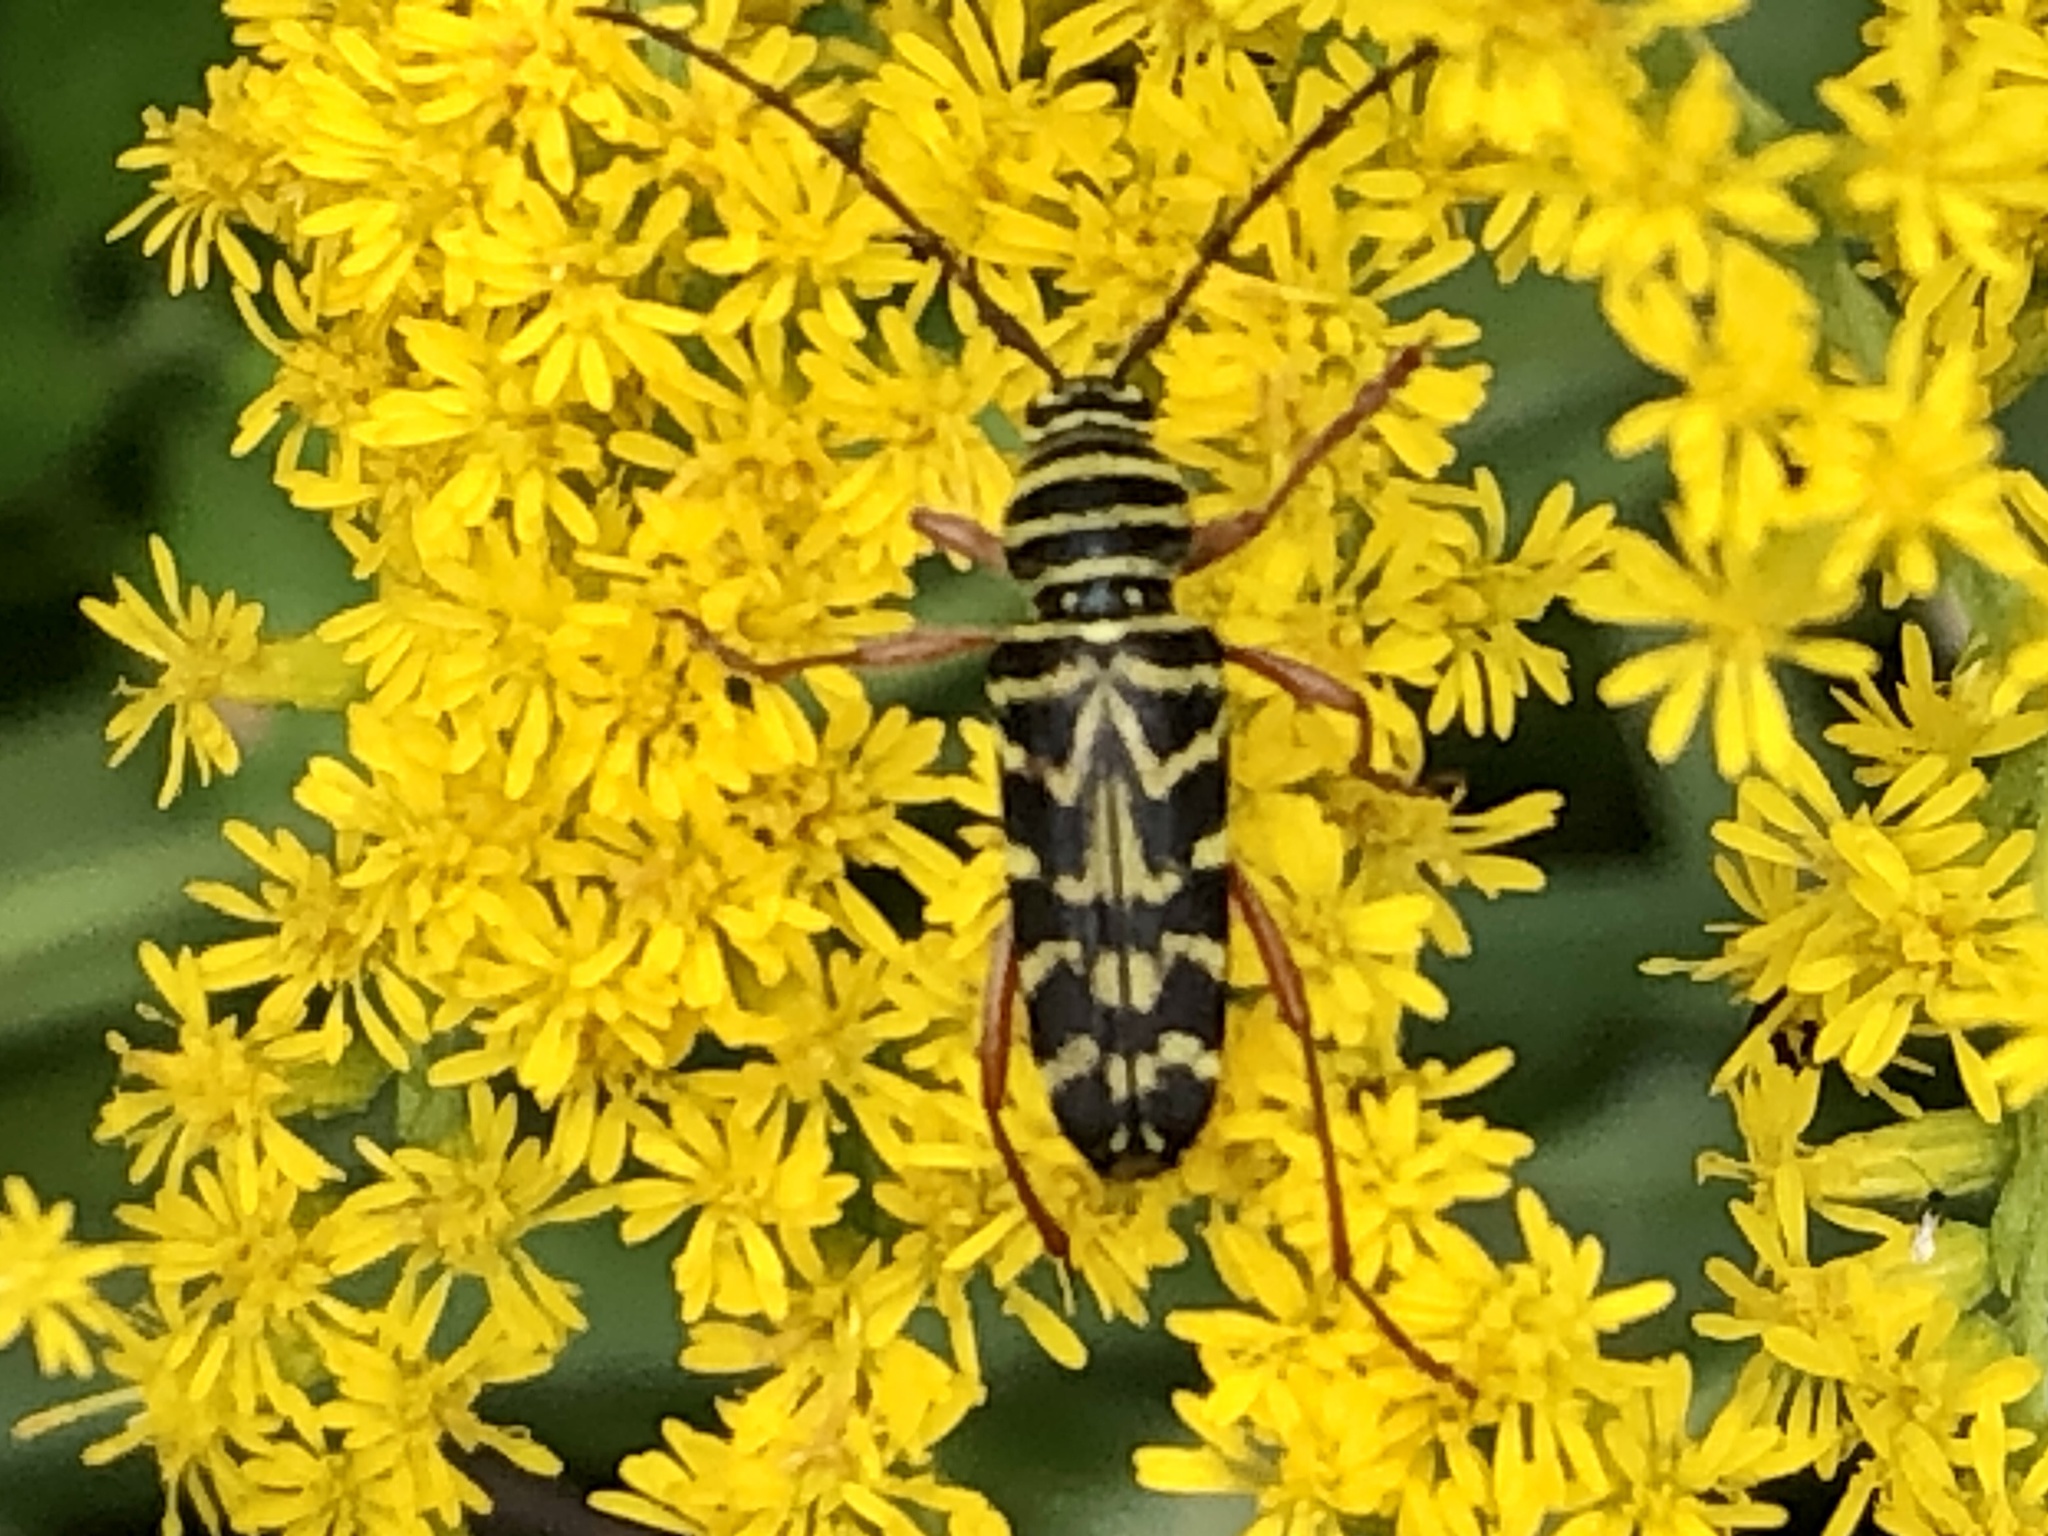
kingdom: Animalia
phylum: Arthropoda
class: Insecta
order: Coleoptera
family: Cerambycidae
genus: Megacyllene
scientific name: Megacyllene robiniae
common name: Locust borer
